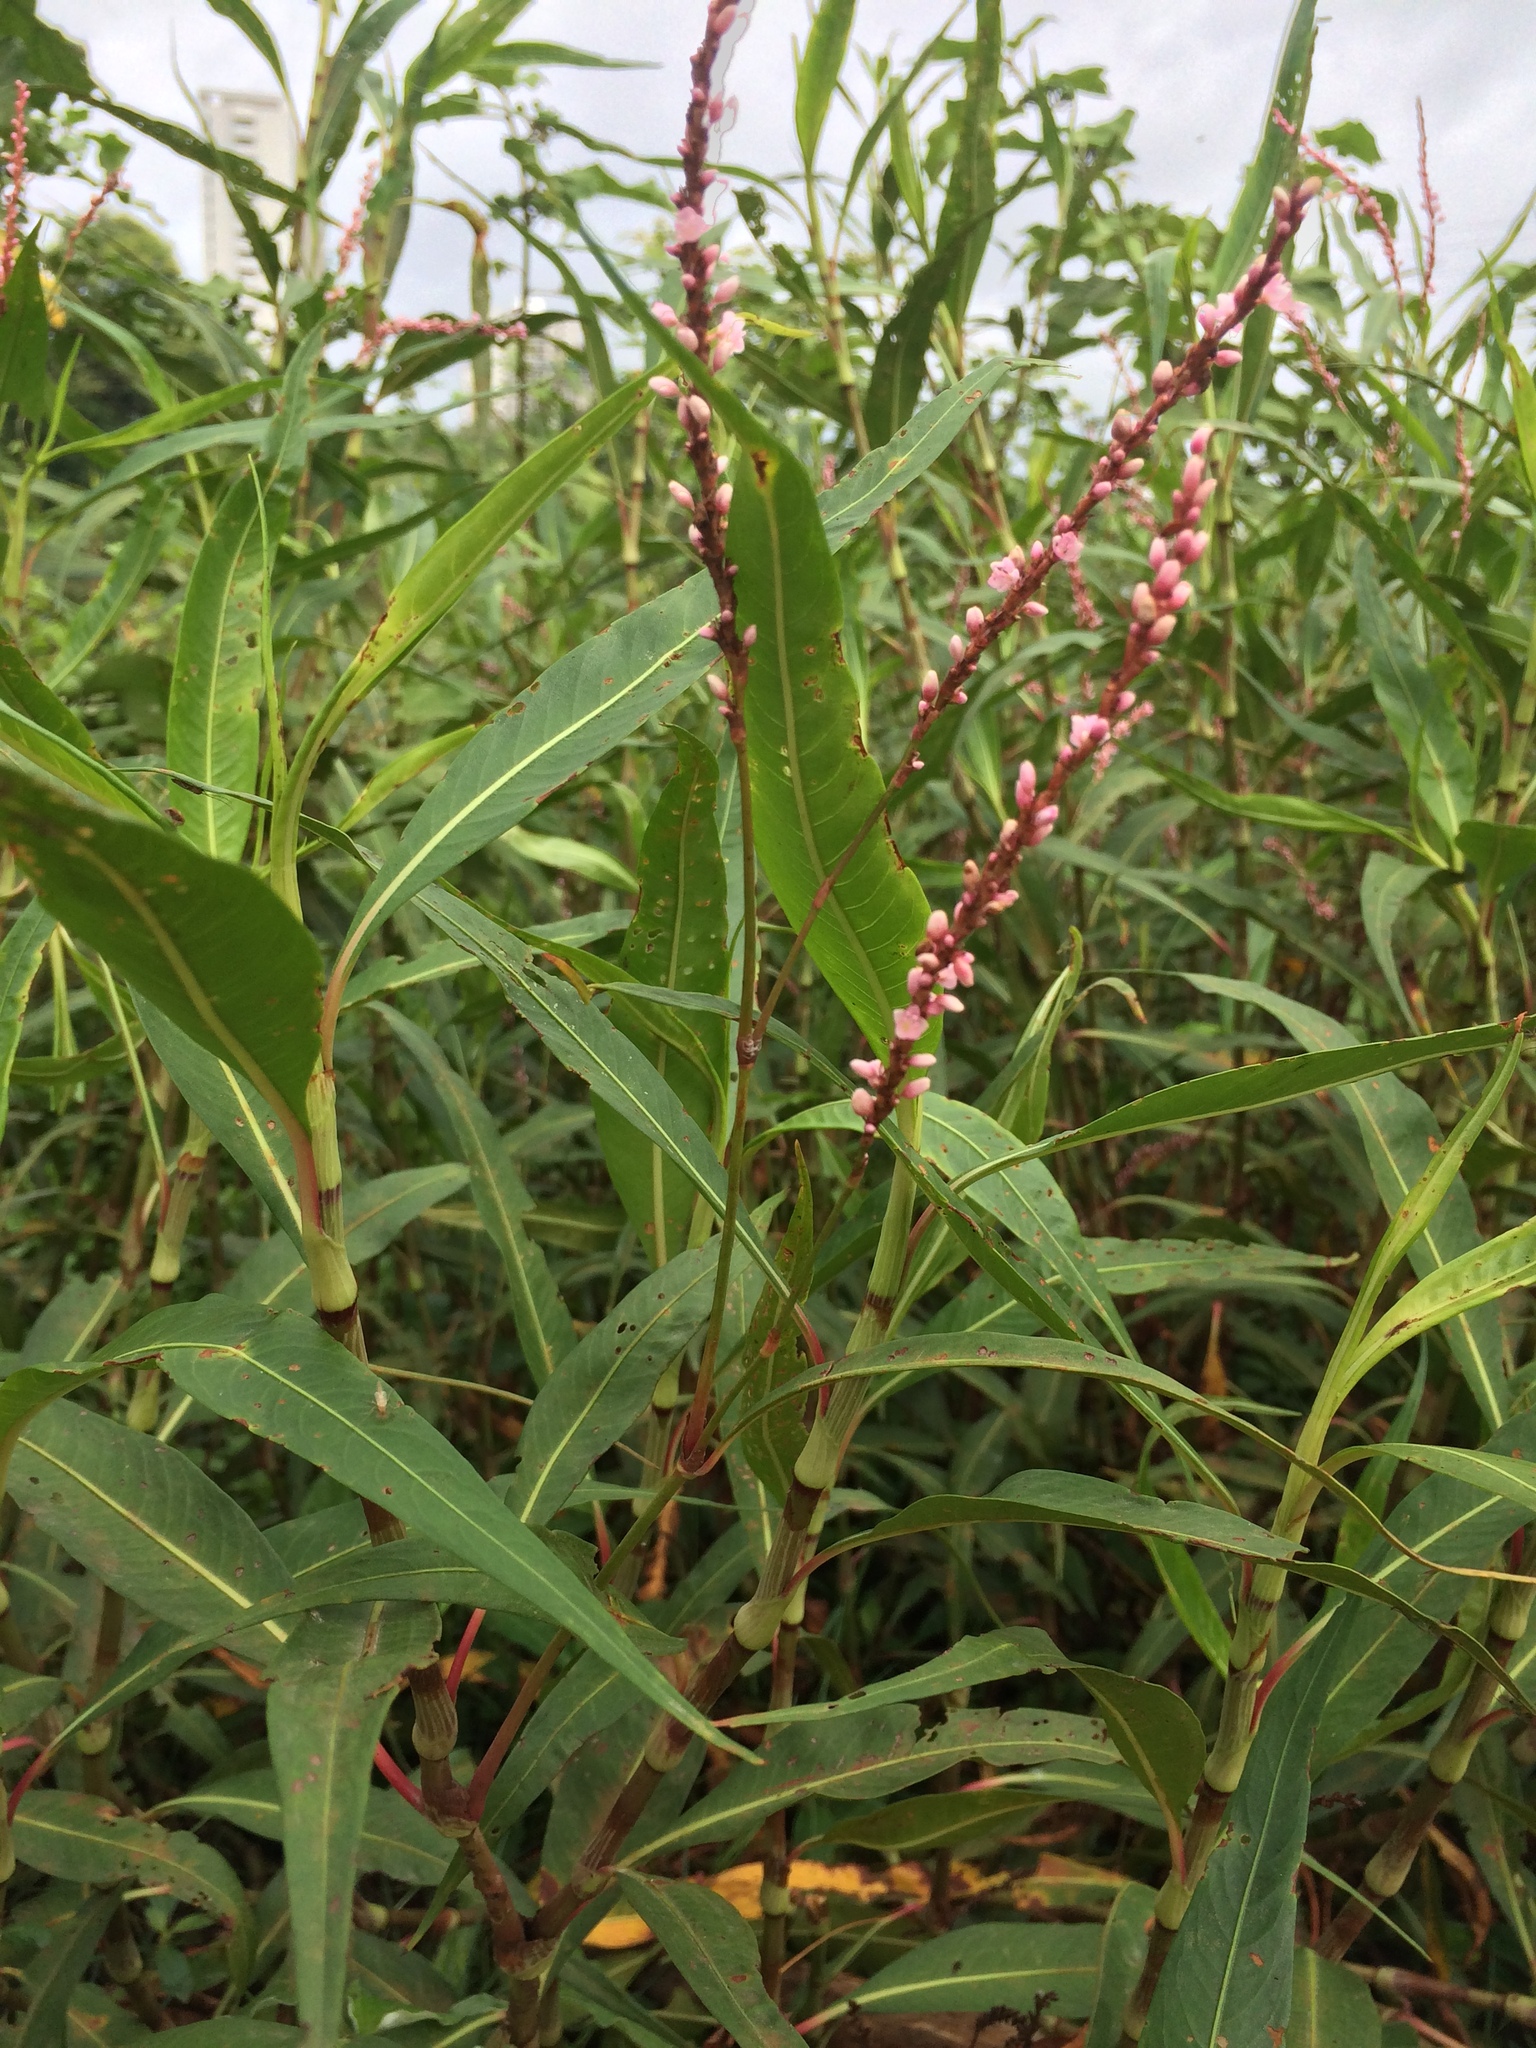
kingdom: Plantae
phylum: Tracheophyta
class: Magnoliopsida
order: Caryophyllales
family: Polygonaceae
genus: Persicaria
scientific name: Persicaria glabra
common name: Denseflower knotweed
